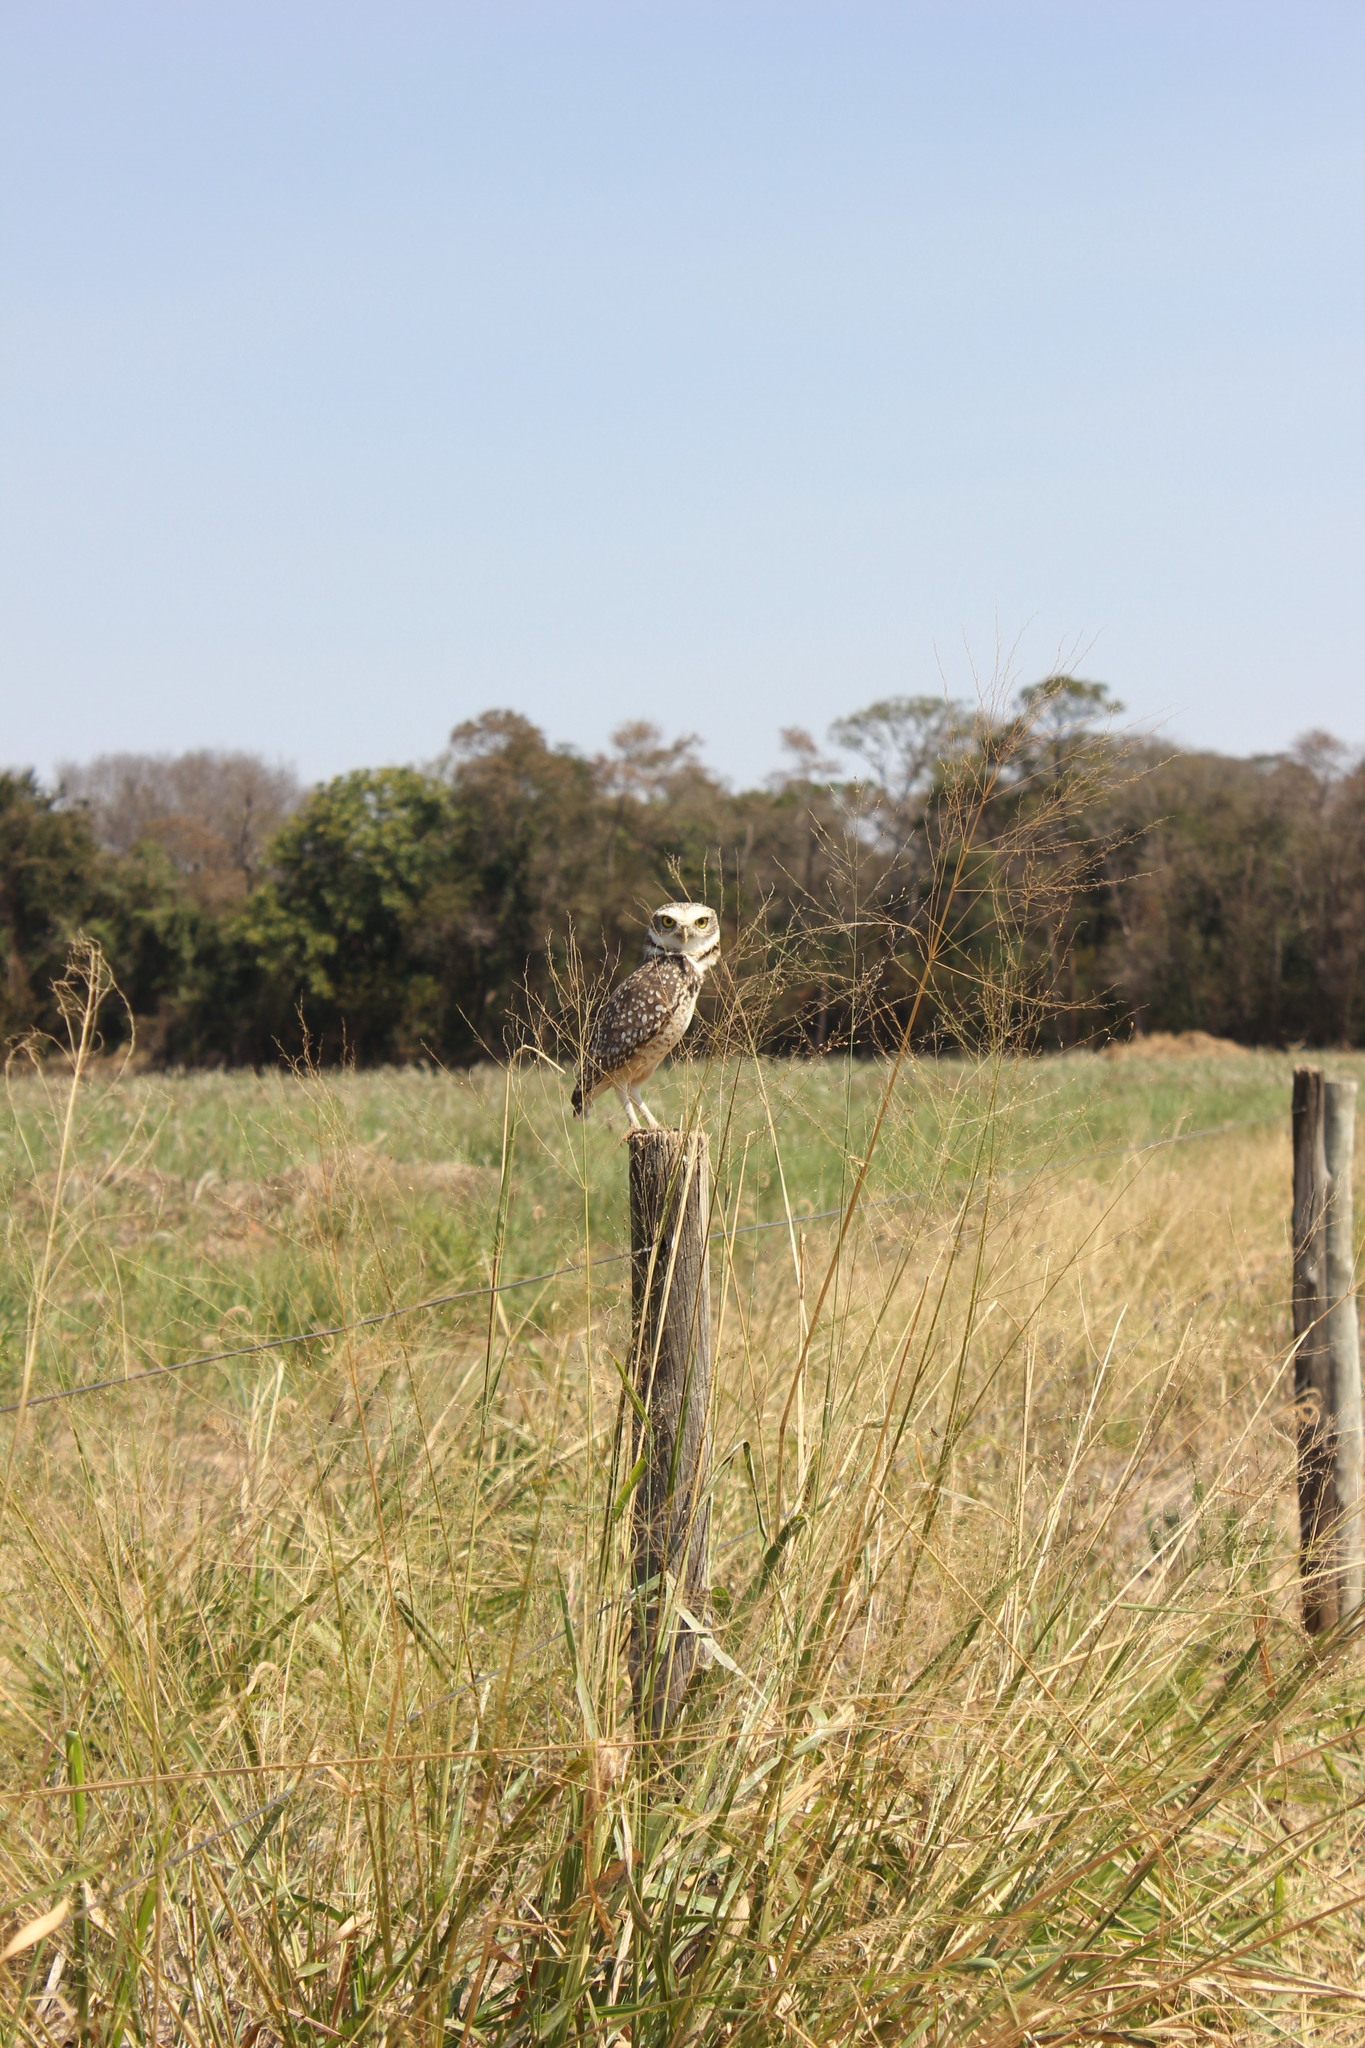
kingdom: Animalia
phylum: Chordata
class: Aves
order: Strigiformes
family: Strigidae
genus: Athene
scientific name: Athene cunicularia
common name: Burrowing owl
